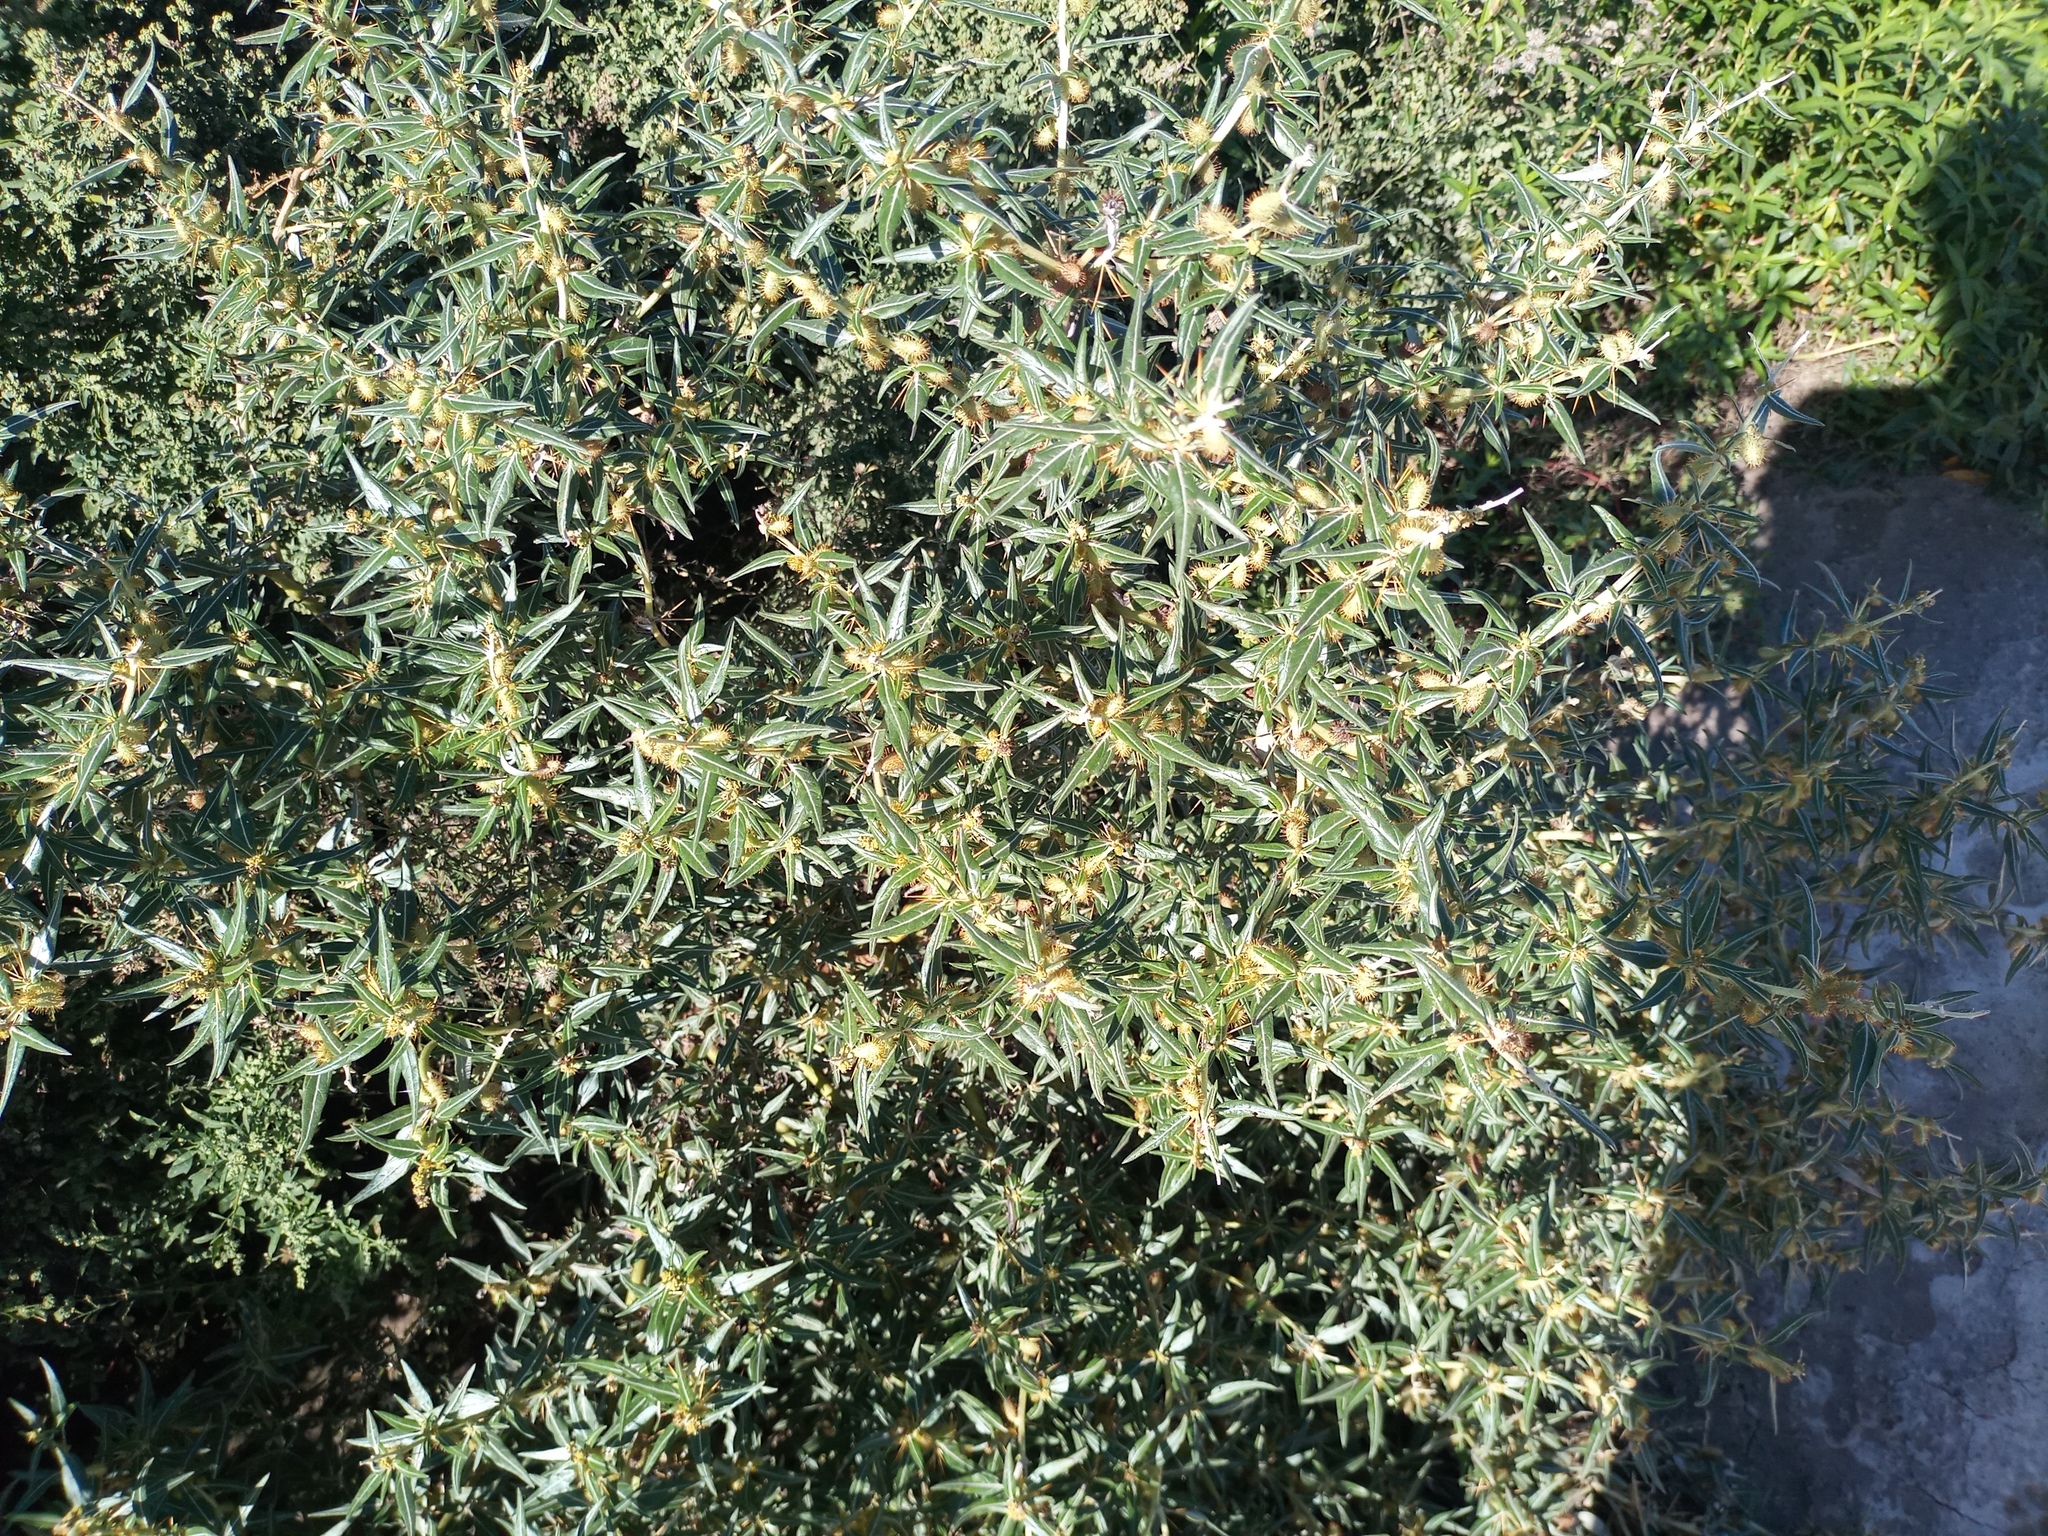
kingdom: Plantae
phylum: Tracheophyta
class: Magnoliopsida
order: Asterales
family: Asteraceae
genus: Xanthium
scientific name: Xanthium spinosum
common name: Spiny cocklebur
